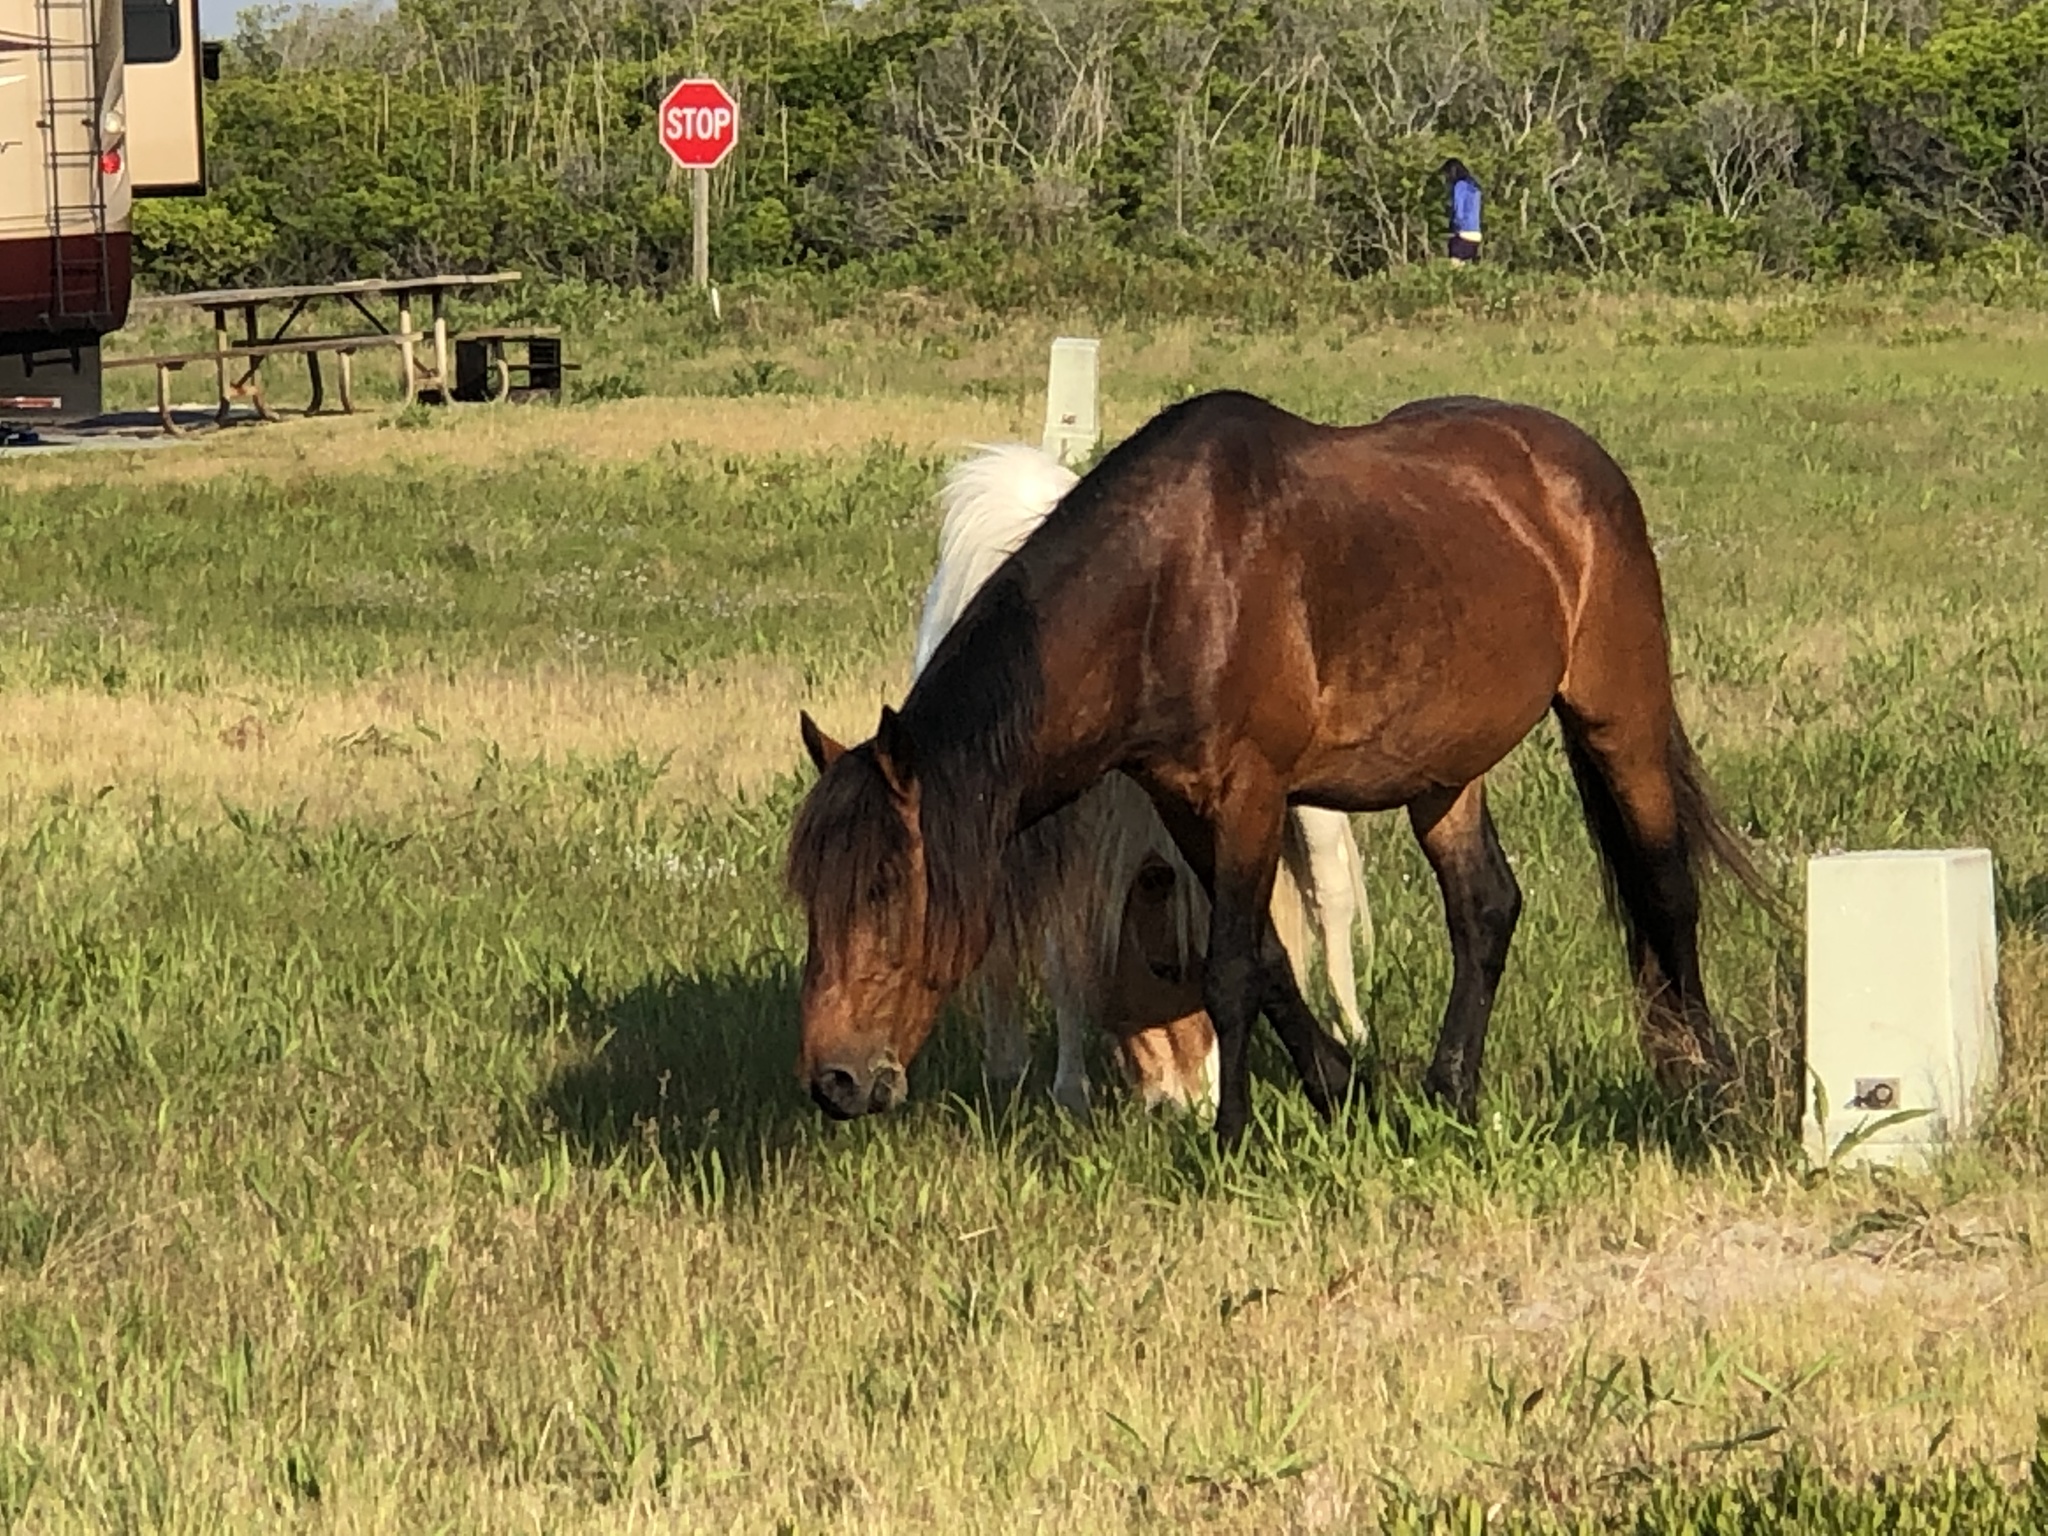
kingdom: Animalia
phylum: Chordata
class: Mammalia
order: Perissodactyla
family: Equidae
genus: Equus
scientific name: Equus caballus
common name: Horse
